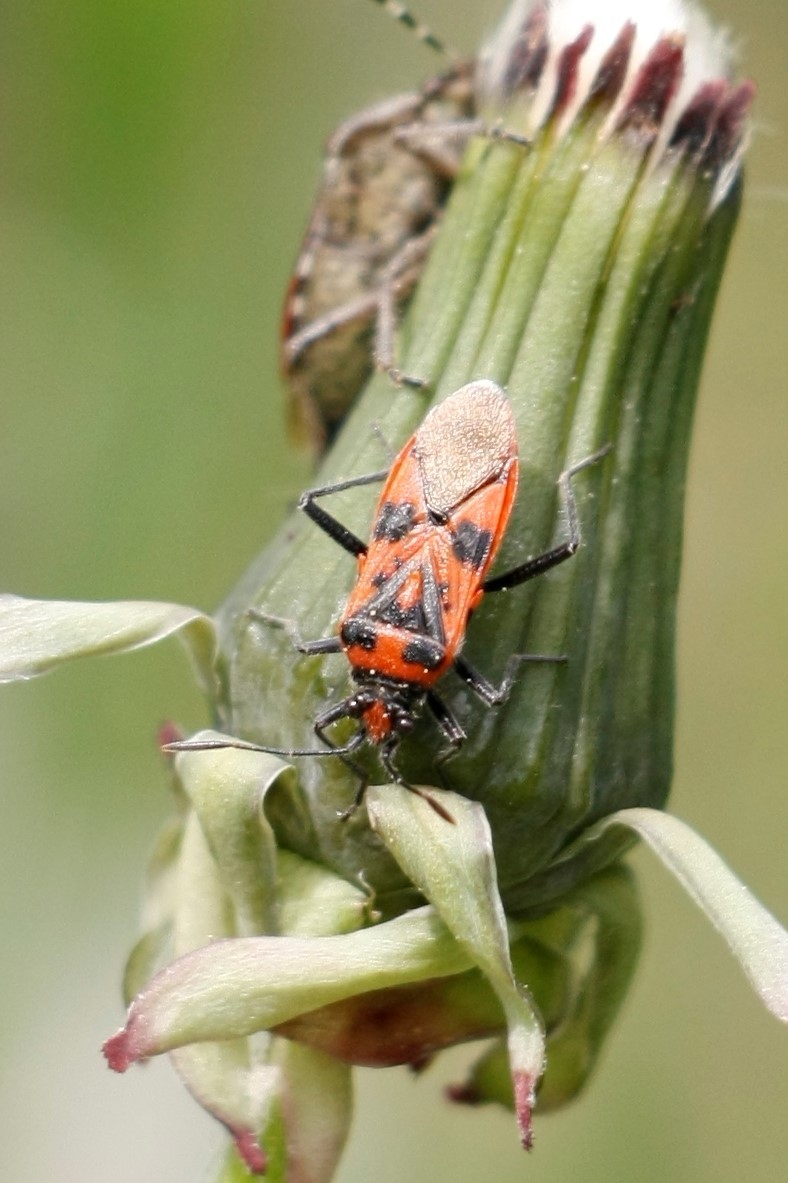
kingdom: Animalia
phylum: Arthropoda
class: Insecta
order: Hemiptera
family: Rhopalidae
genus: Corizus
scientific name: Corizus hyoscyami
